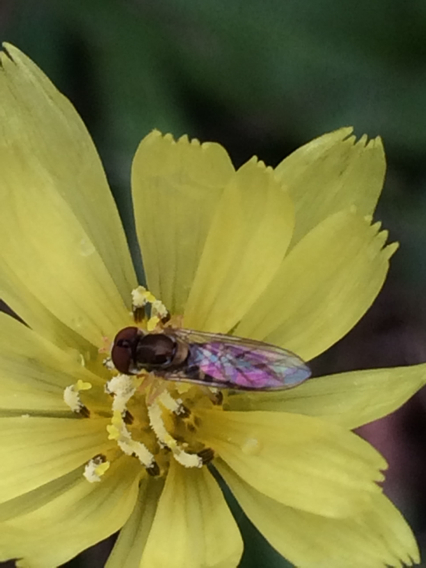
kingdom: Animalia
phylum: Arthropoda
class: Insecta
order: Diptera
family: Syrphidae
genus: Toxomerus
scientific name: Toxomerus marginatus
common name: Syrphid fly
